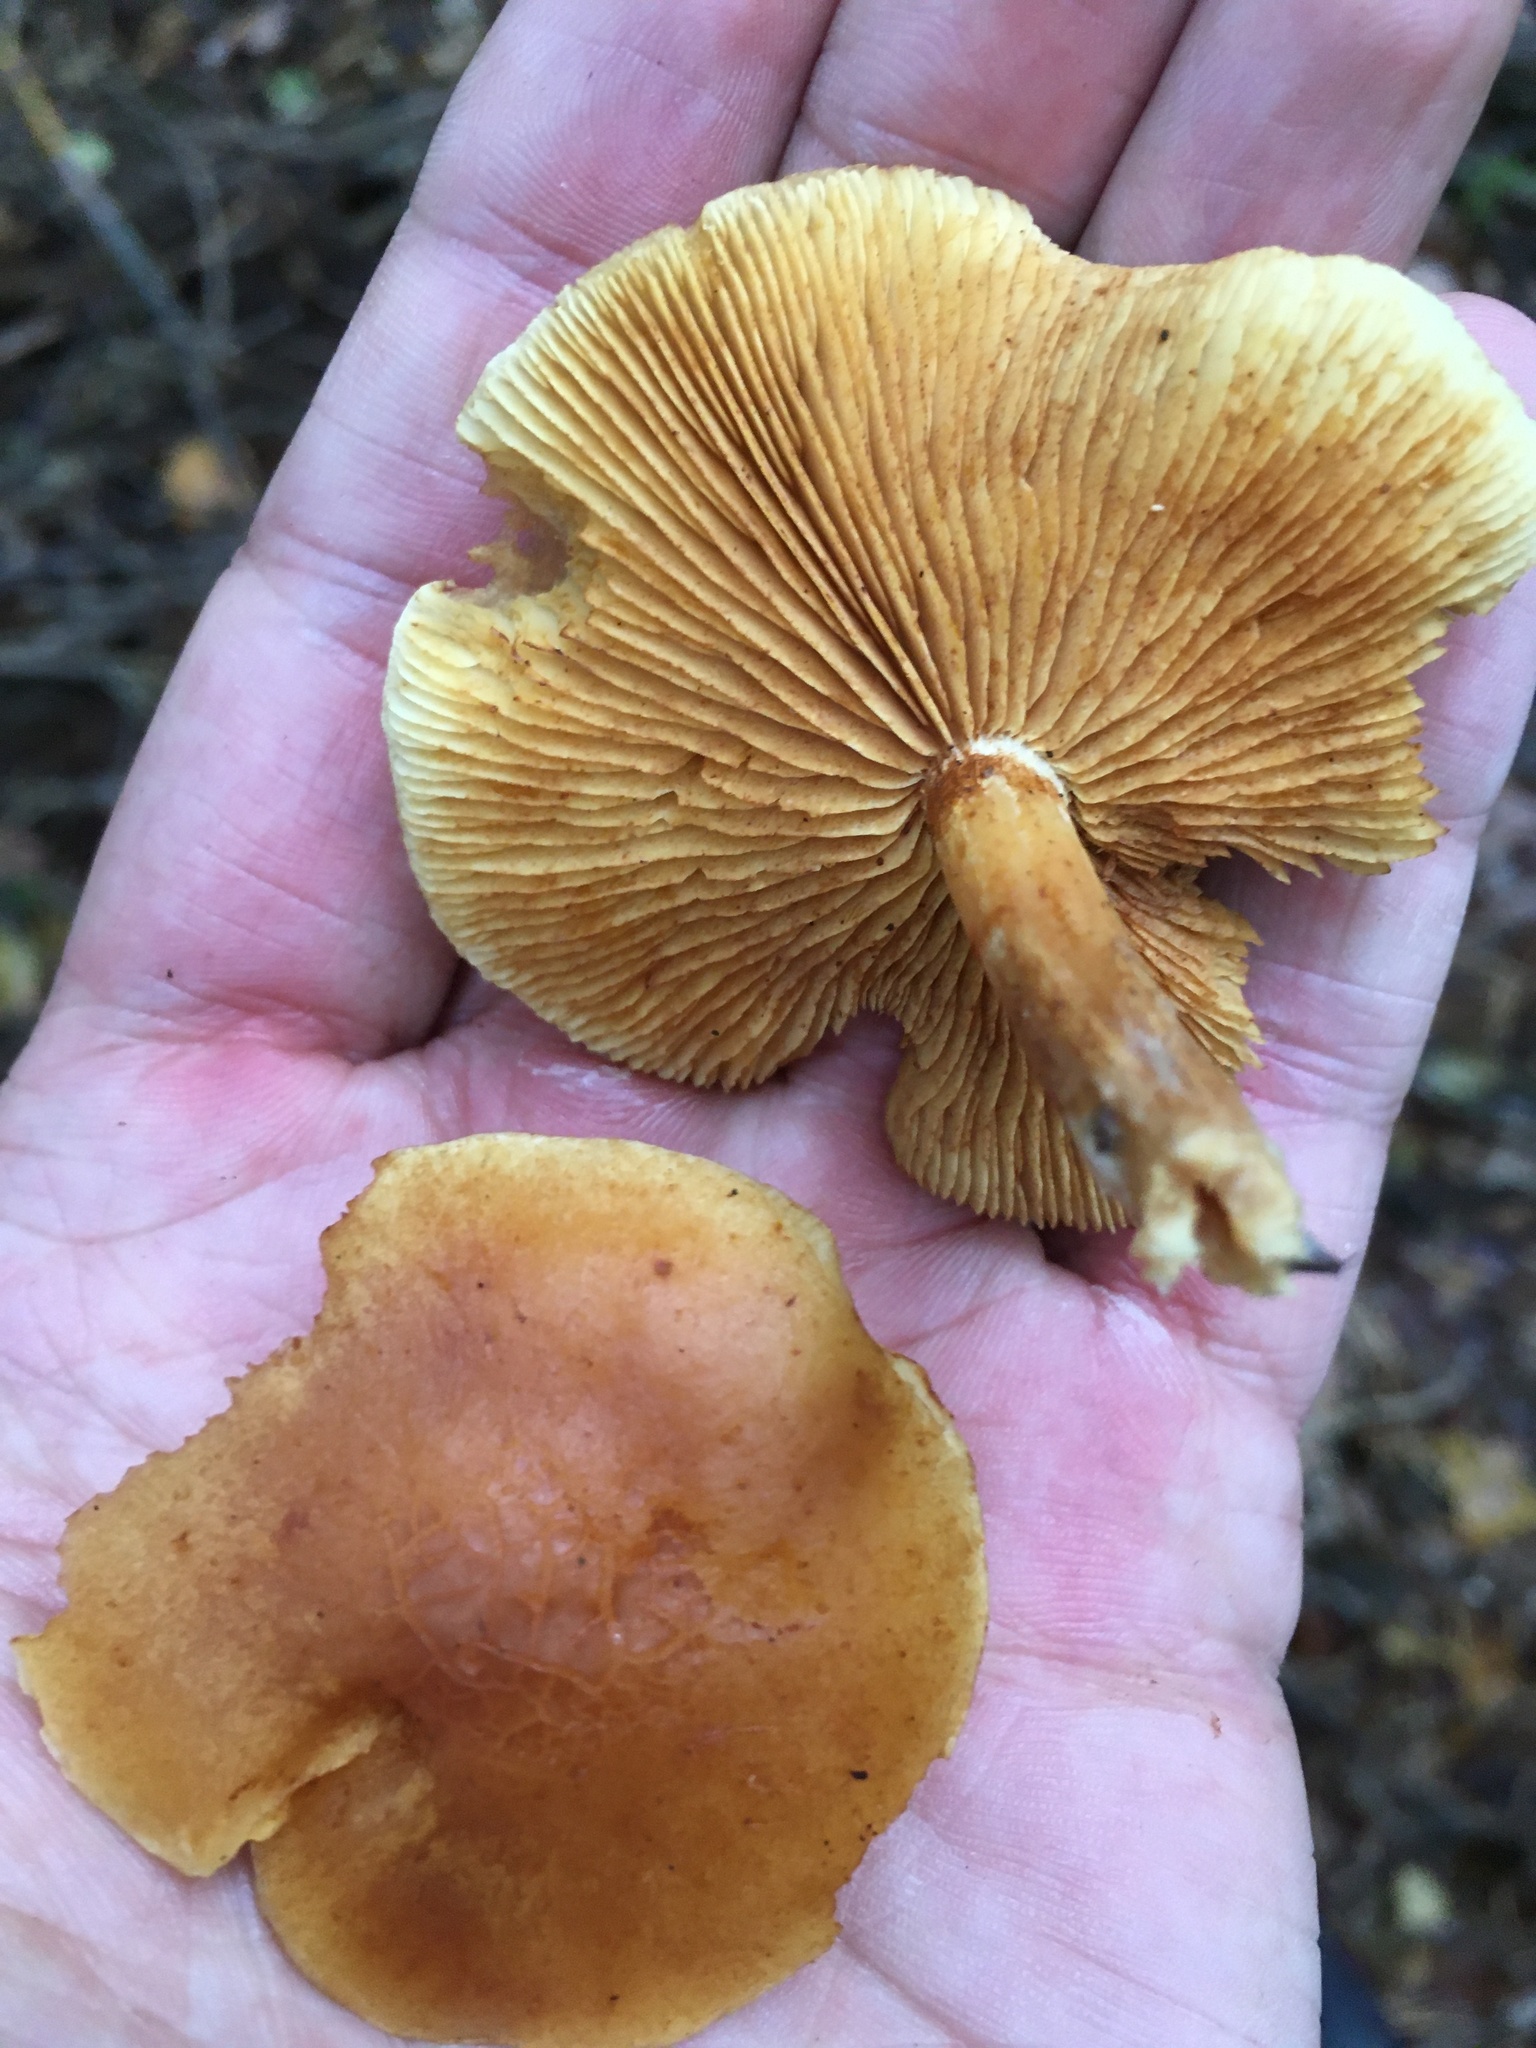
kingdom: Fungi
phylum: Basidiomycota
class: Agaricomycetes
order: Agaricales
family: Hymenogastraceae
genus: Gymnopilus
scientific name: Gymnopilus penetrans
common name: Common rustgill
